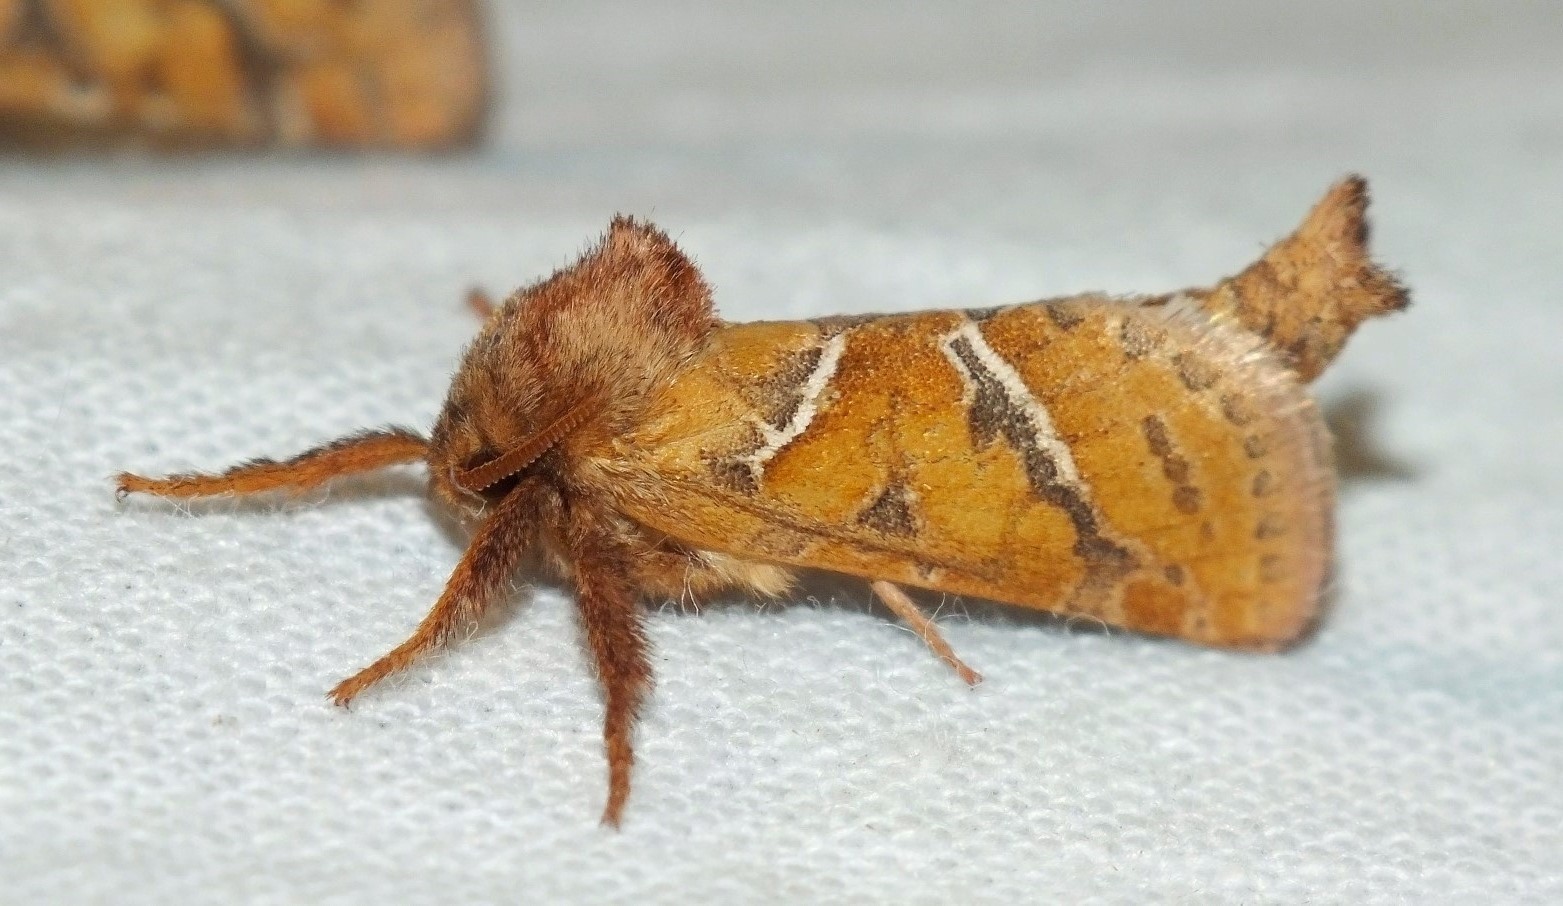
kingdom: Animalia
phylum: Arthropoda
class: Insecta
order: Lepidoptera
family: Hepialidae
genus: Triodia
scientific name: Triodia sylvina
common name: Orange swift
